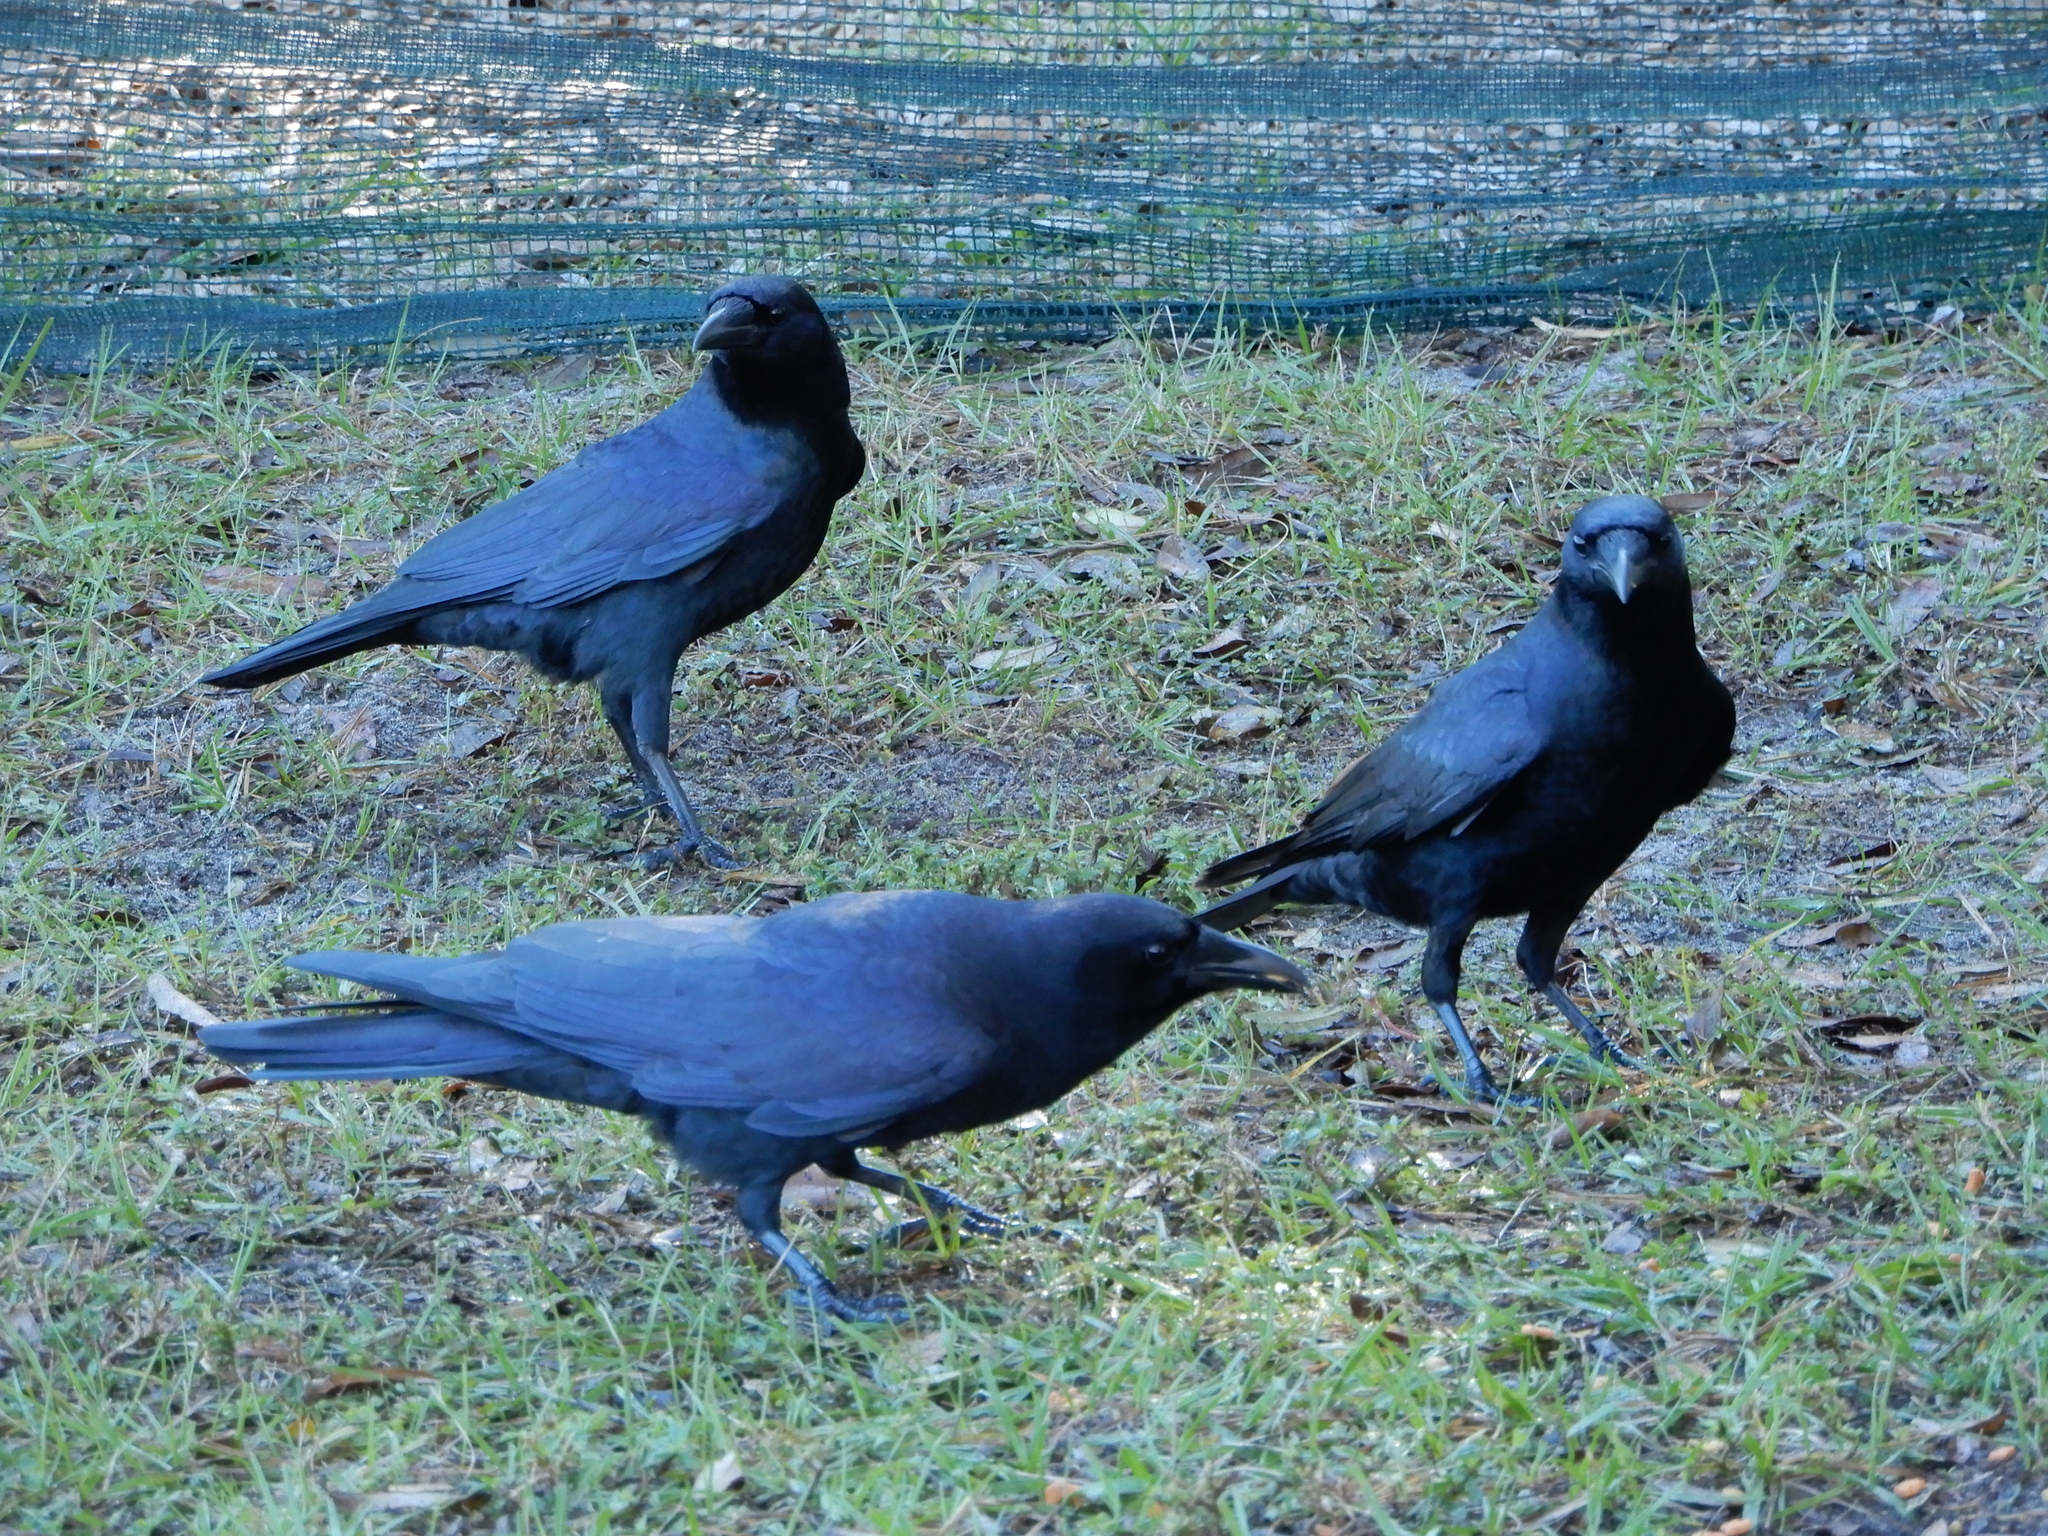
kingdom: Animalia
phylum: Chordata
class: Aves
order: Passeriformes
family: Corvidae
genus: Corvus
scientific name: Corvus ossifragus
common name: Fish crow
